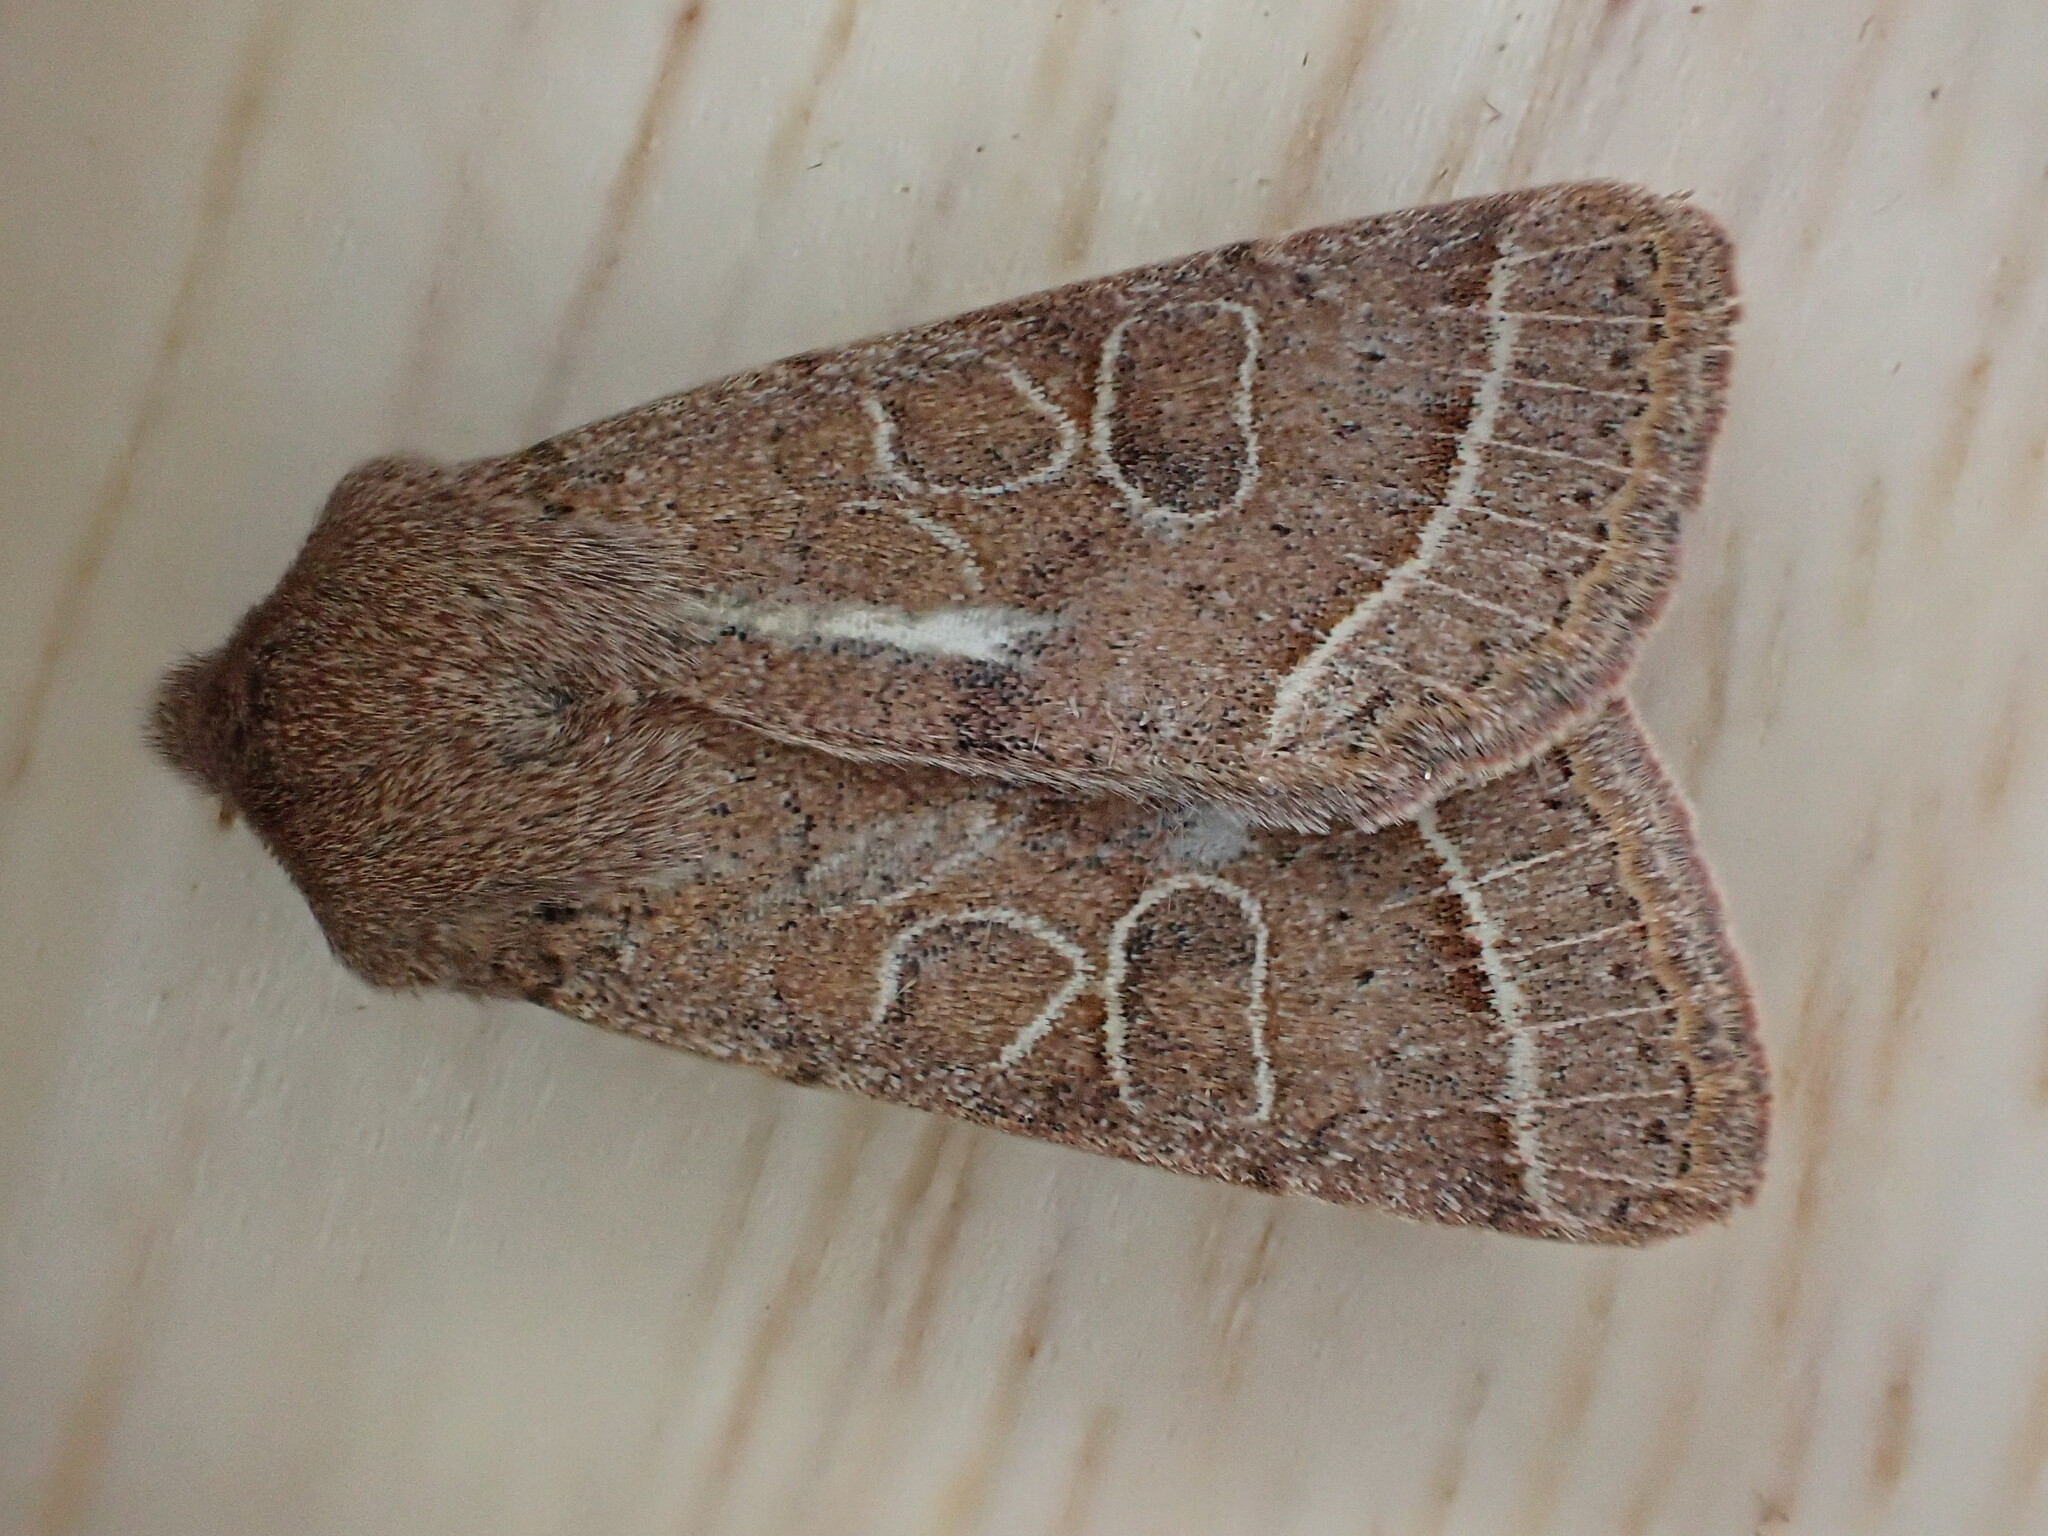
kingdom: Animalia
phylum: Arthropoda
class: Insecta
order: Lepidoptera
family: Noctuidae
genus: Orthosia
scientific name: Orthosia cerasi
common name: Common quaker
